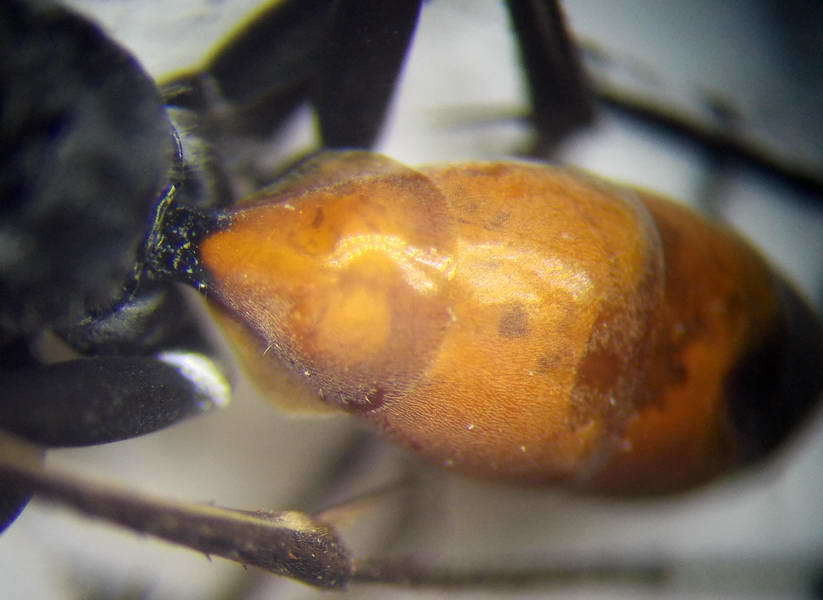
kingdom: Animalia
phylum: Arthropoda
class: Insecta
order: Hymenoptera
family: Pompilidae
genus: Auplopus
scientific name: Auplopus albifrons
